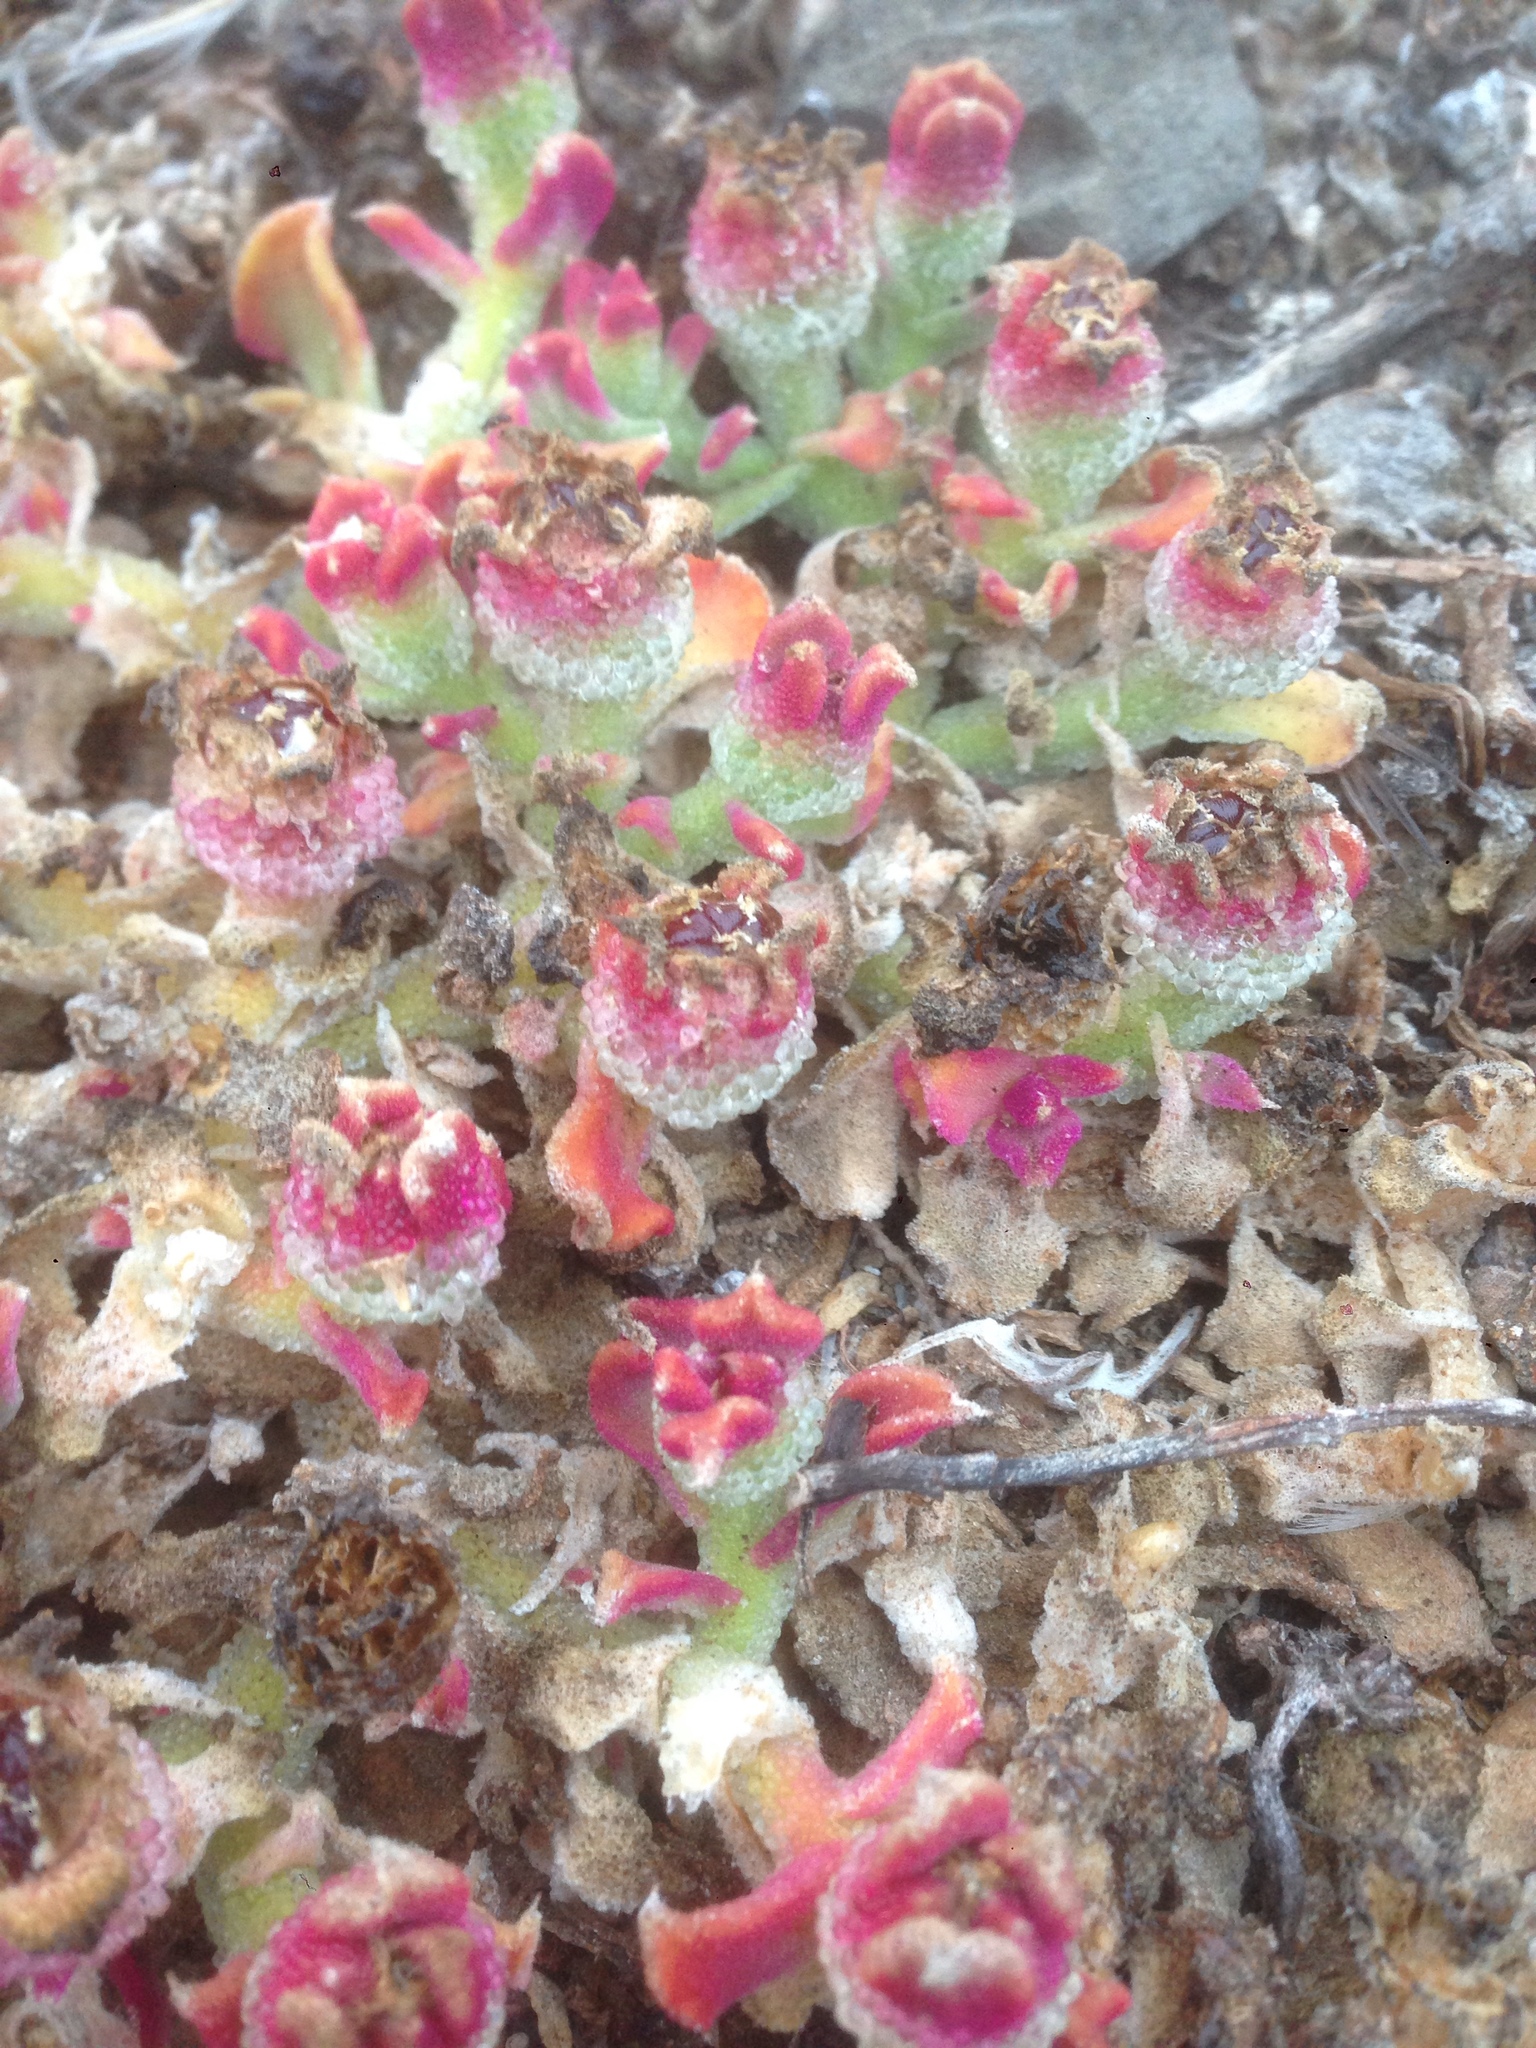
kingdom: Plantae
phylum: Tracheophyta
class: Magnoliopsida
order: Caryophyllales
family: Aizoaceae
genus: Mesembryanthemum
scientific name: Mesembryanthemum crystallinum
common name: Common iceplant
